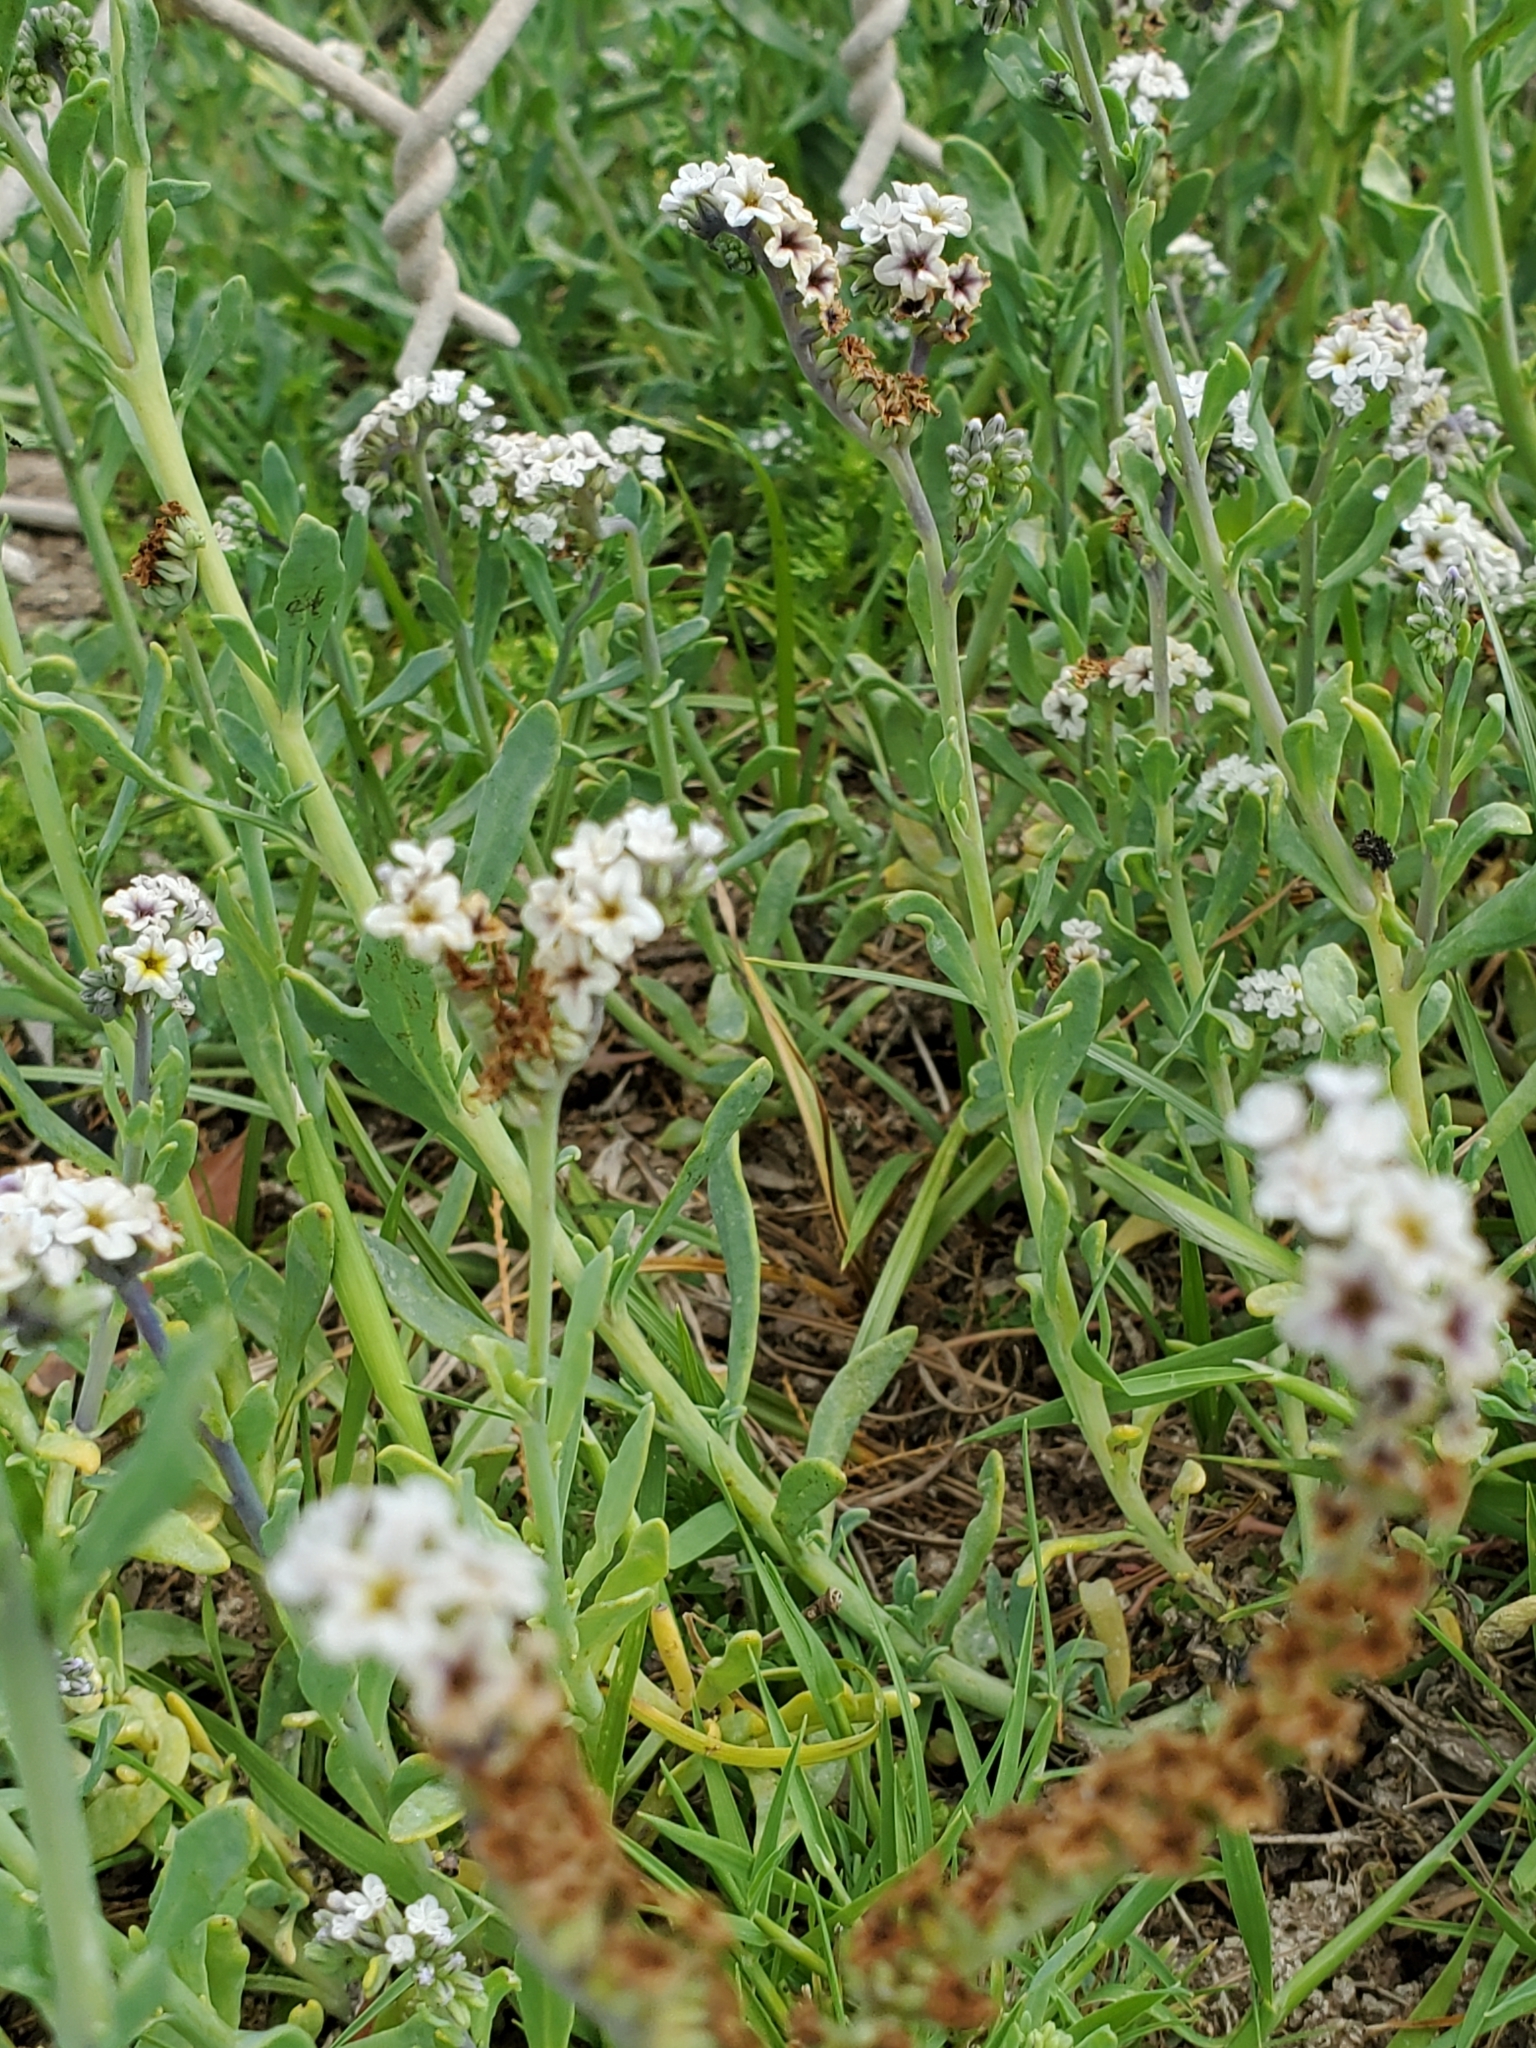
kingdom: Plantae
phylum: Tracheophyta
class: Magnoliopsida
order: Boraginales
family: Heliotropiaceae
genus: Heliotropium
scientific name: Heliotropium curassavicum
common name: Seaside heliotrope
